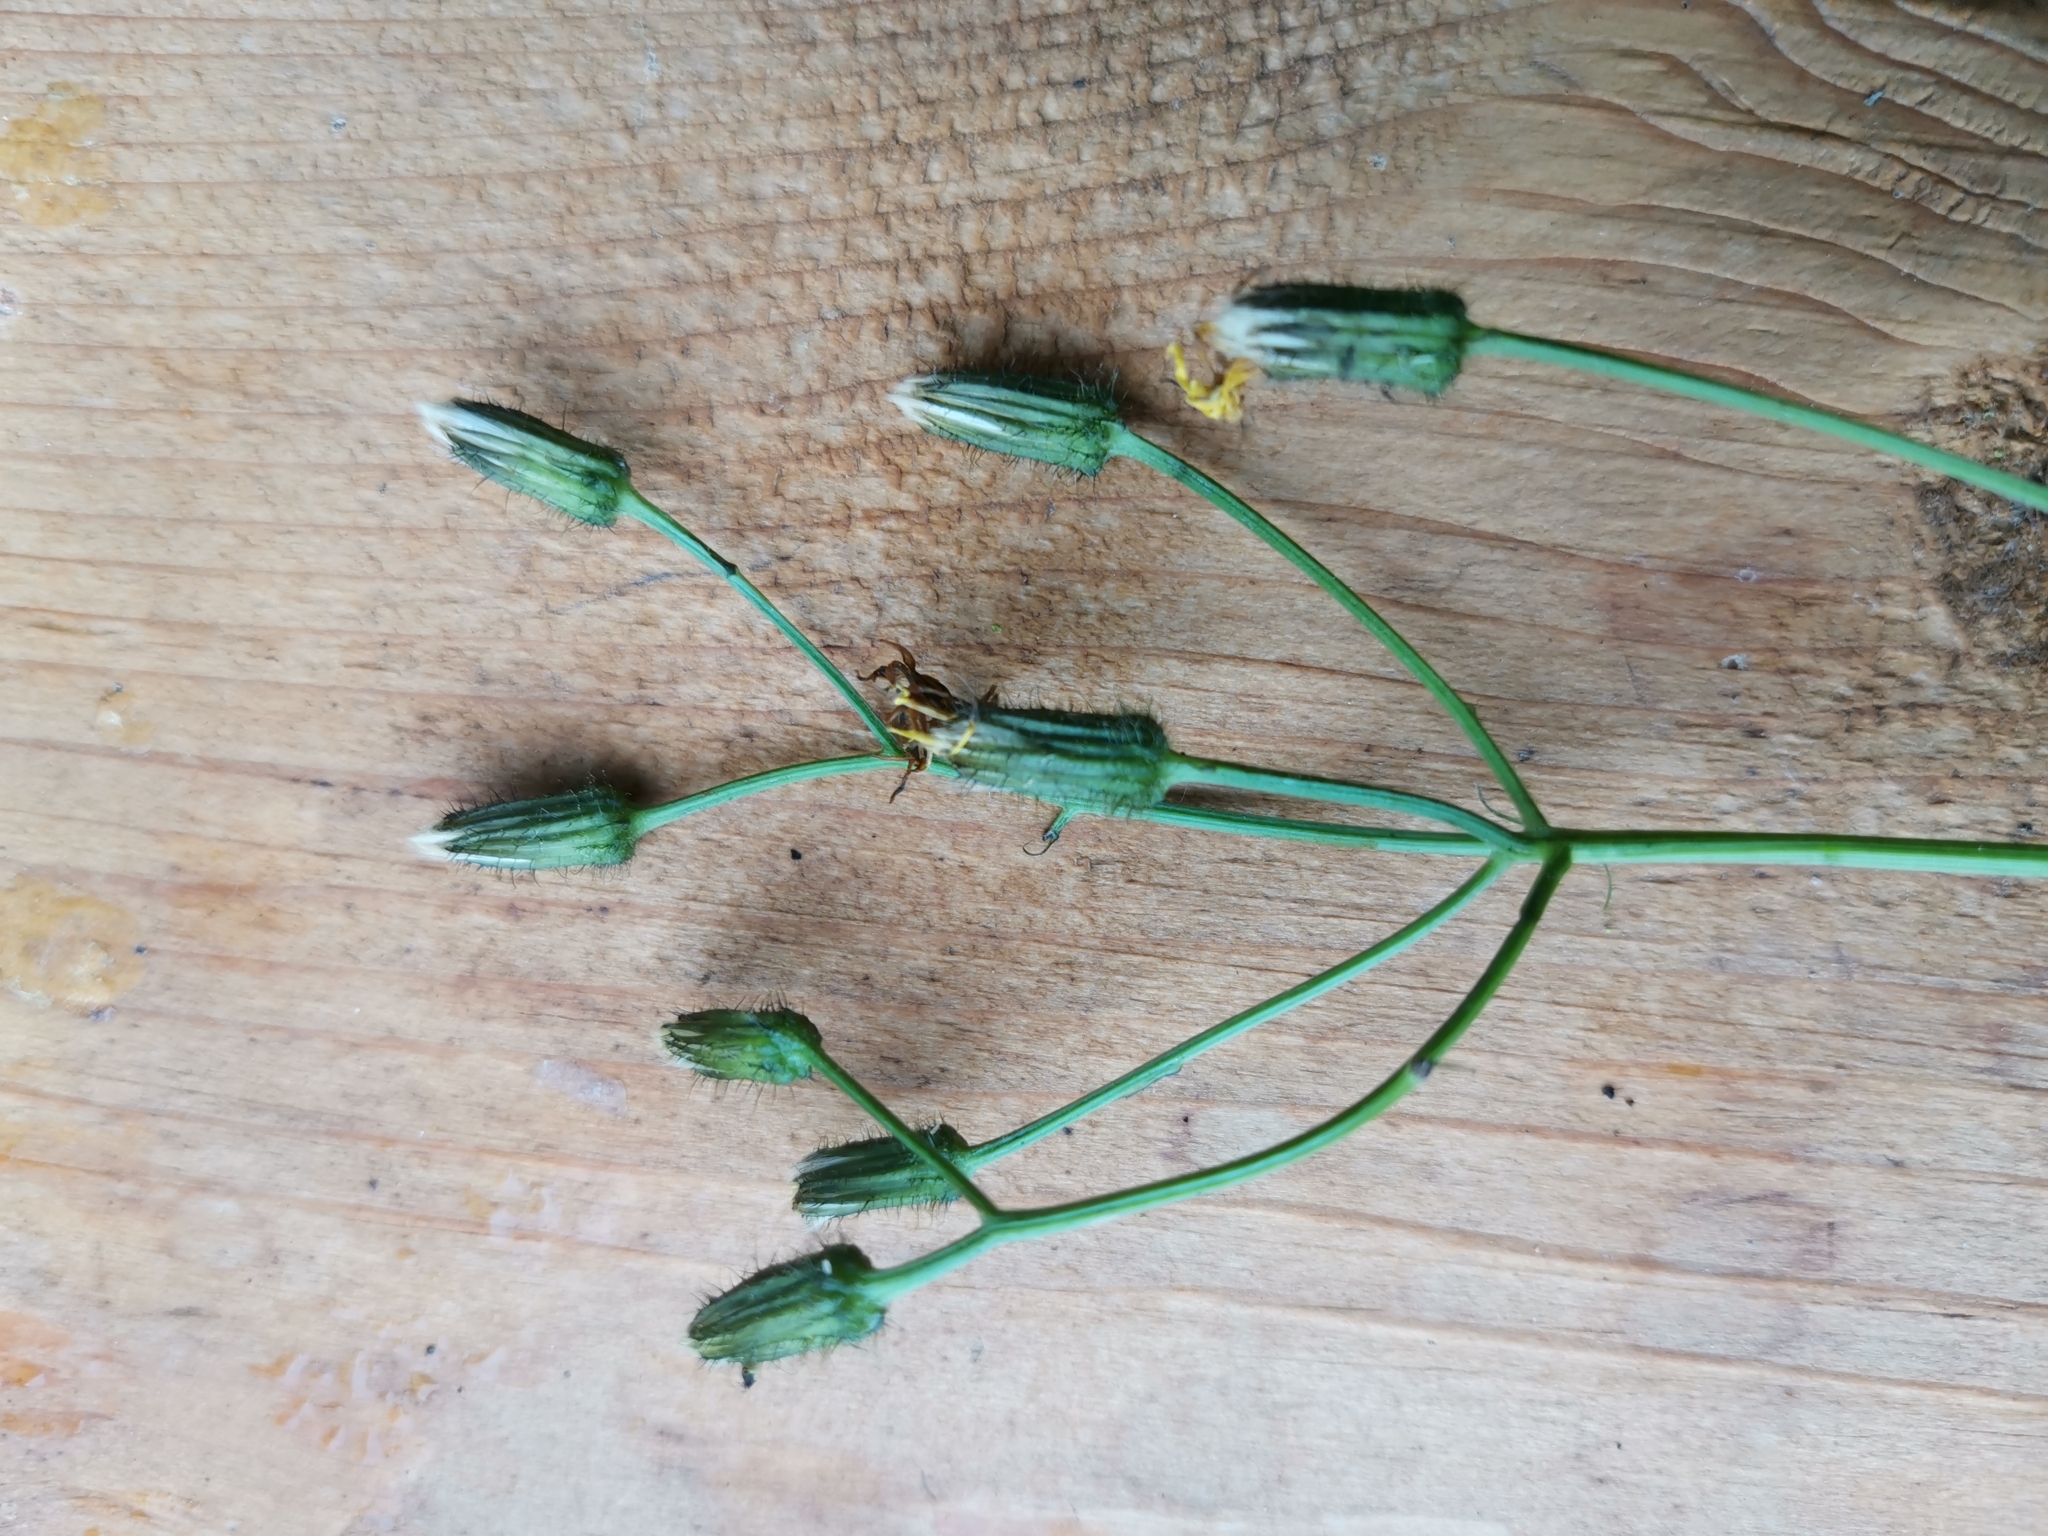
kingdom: Plantae
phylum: Tracheophyta
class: Magnoliopsida
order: Asterales
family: Asteraceae
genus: Crepis
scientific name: Crepis paludosa
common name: Marsh hawk's-beard
